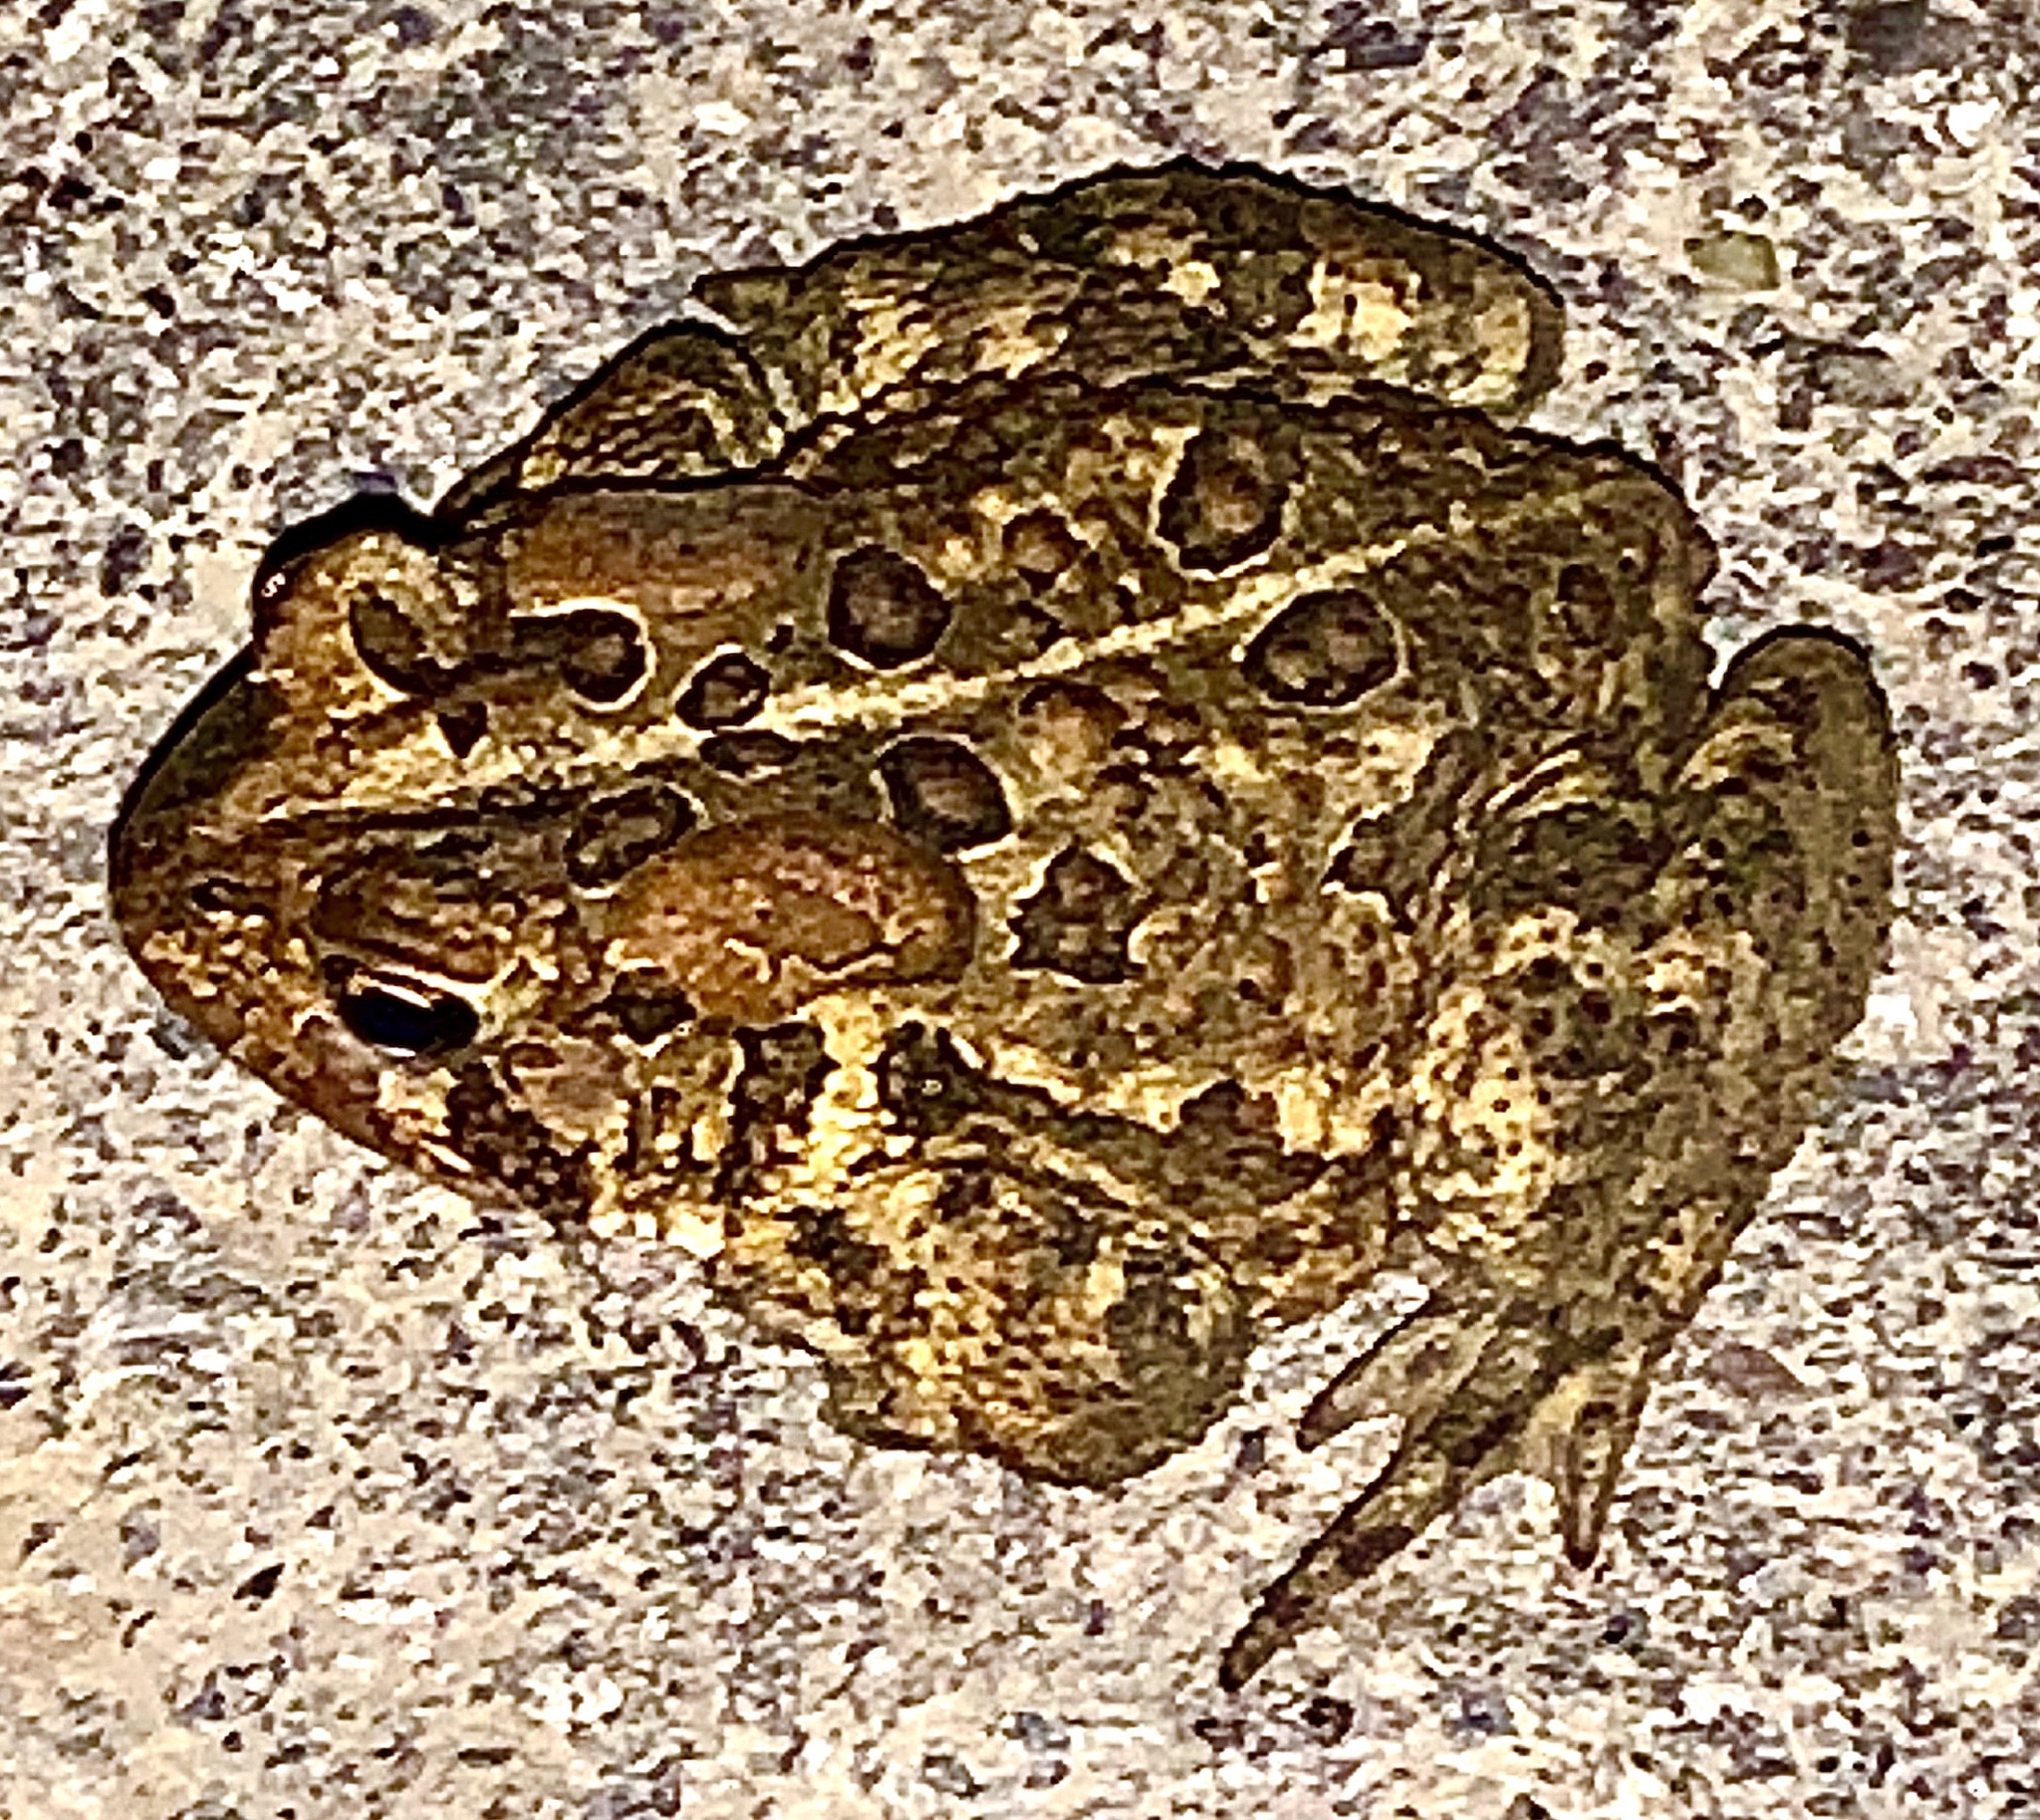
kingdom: Animalia
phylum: Chordata
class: Amphibia
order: Anura
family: Bufonidae
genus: Anaxyrus
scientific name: Anaxyrus americanus
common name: American toad
